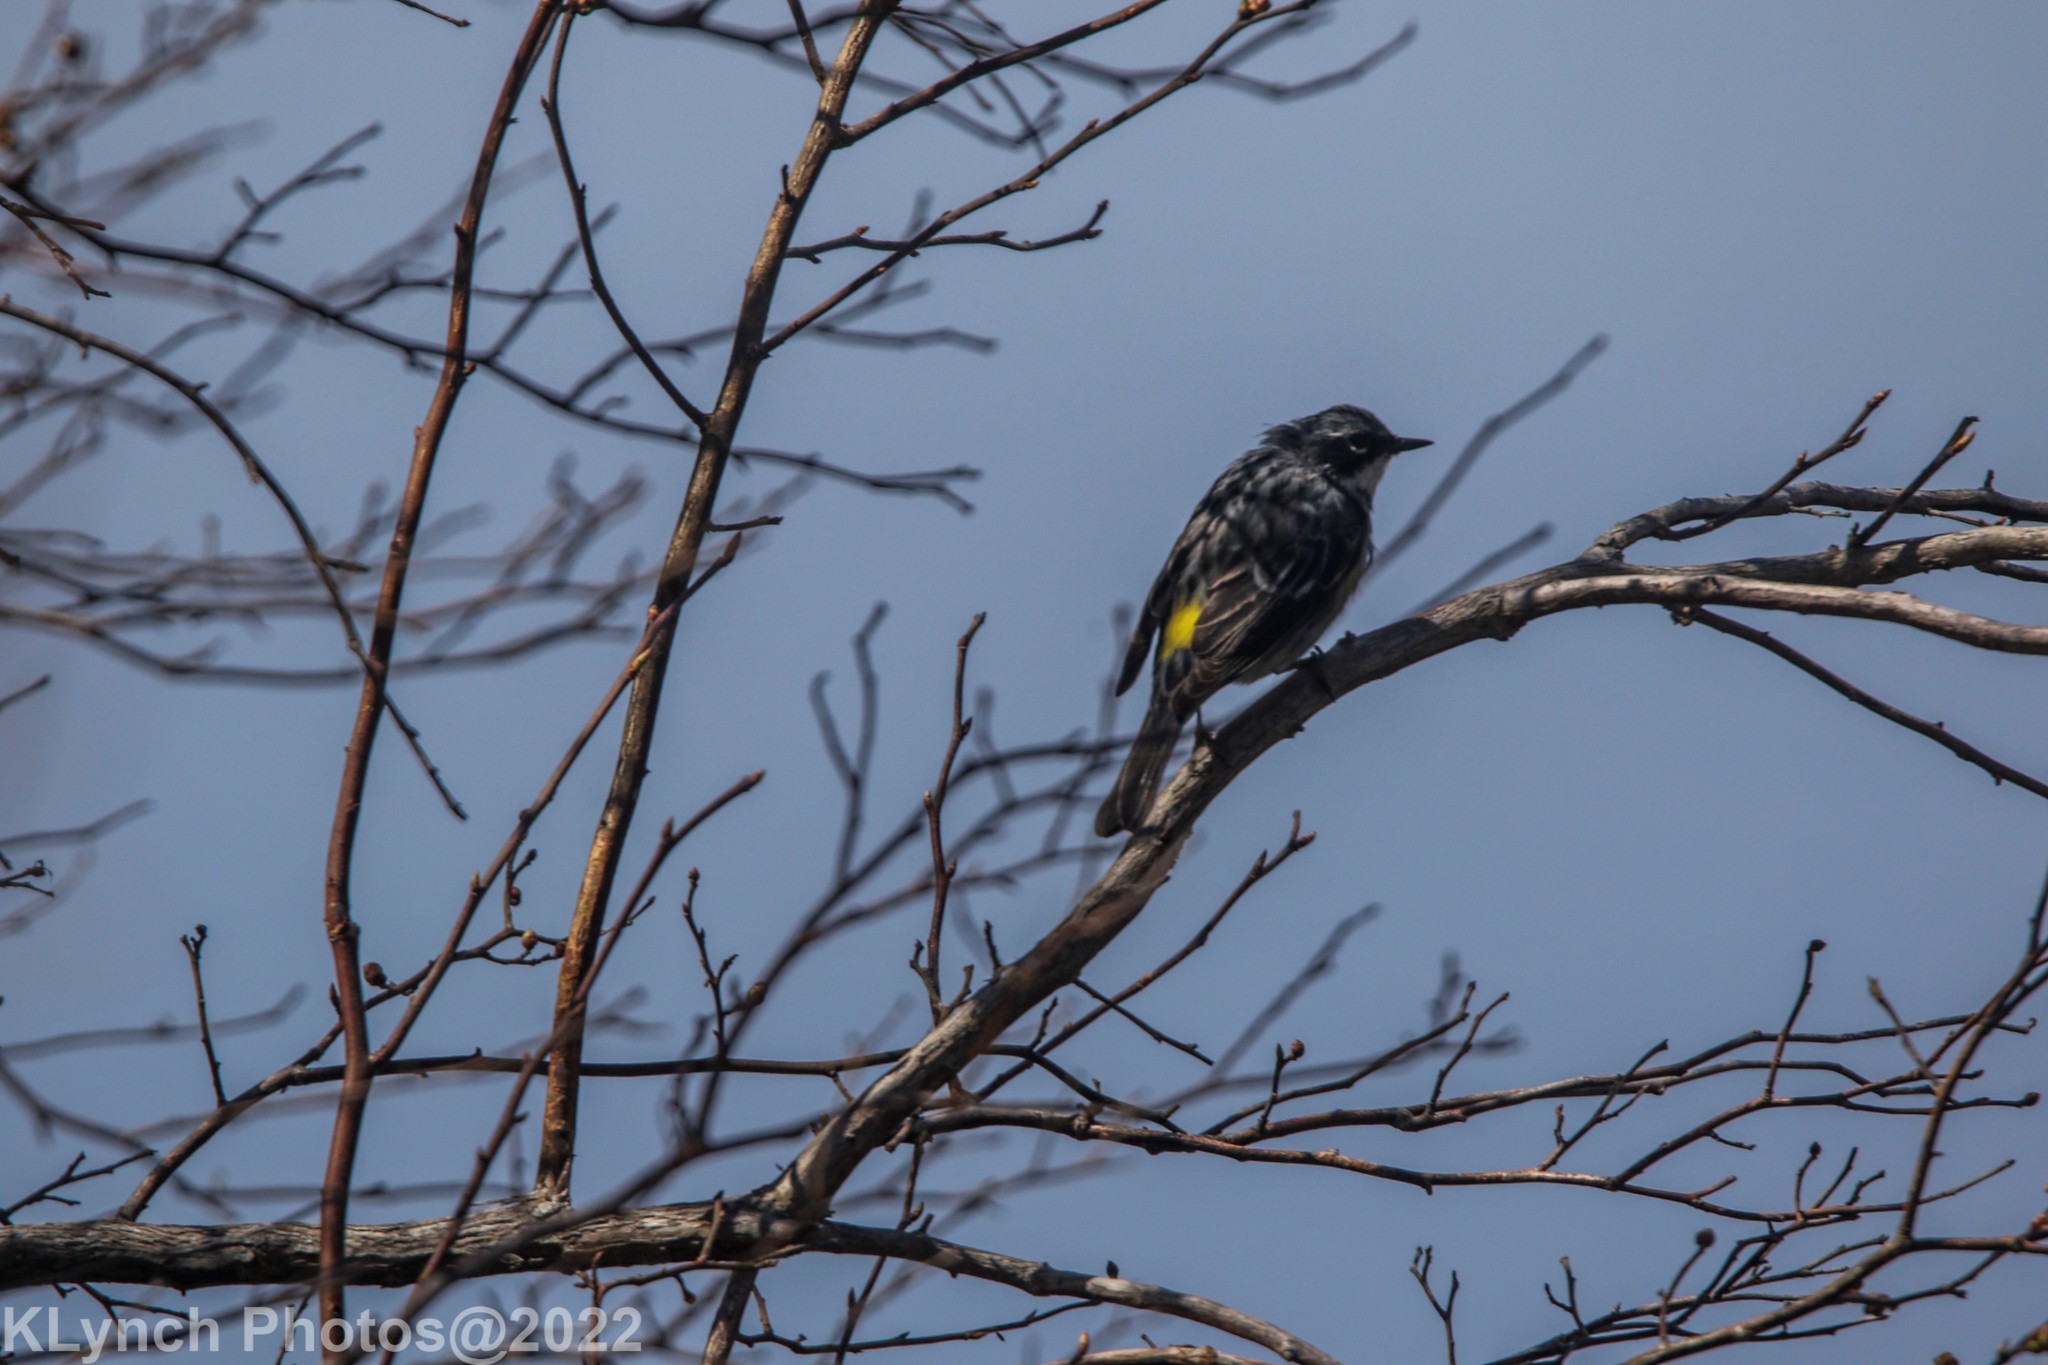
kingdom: Animalia
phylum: Chordata
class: Aves
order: Passeriformes
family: Parulidae
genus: Setophaga
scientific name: Setophaga coronata
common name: Myrtle warbler
